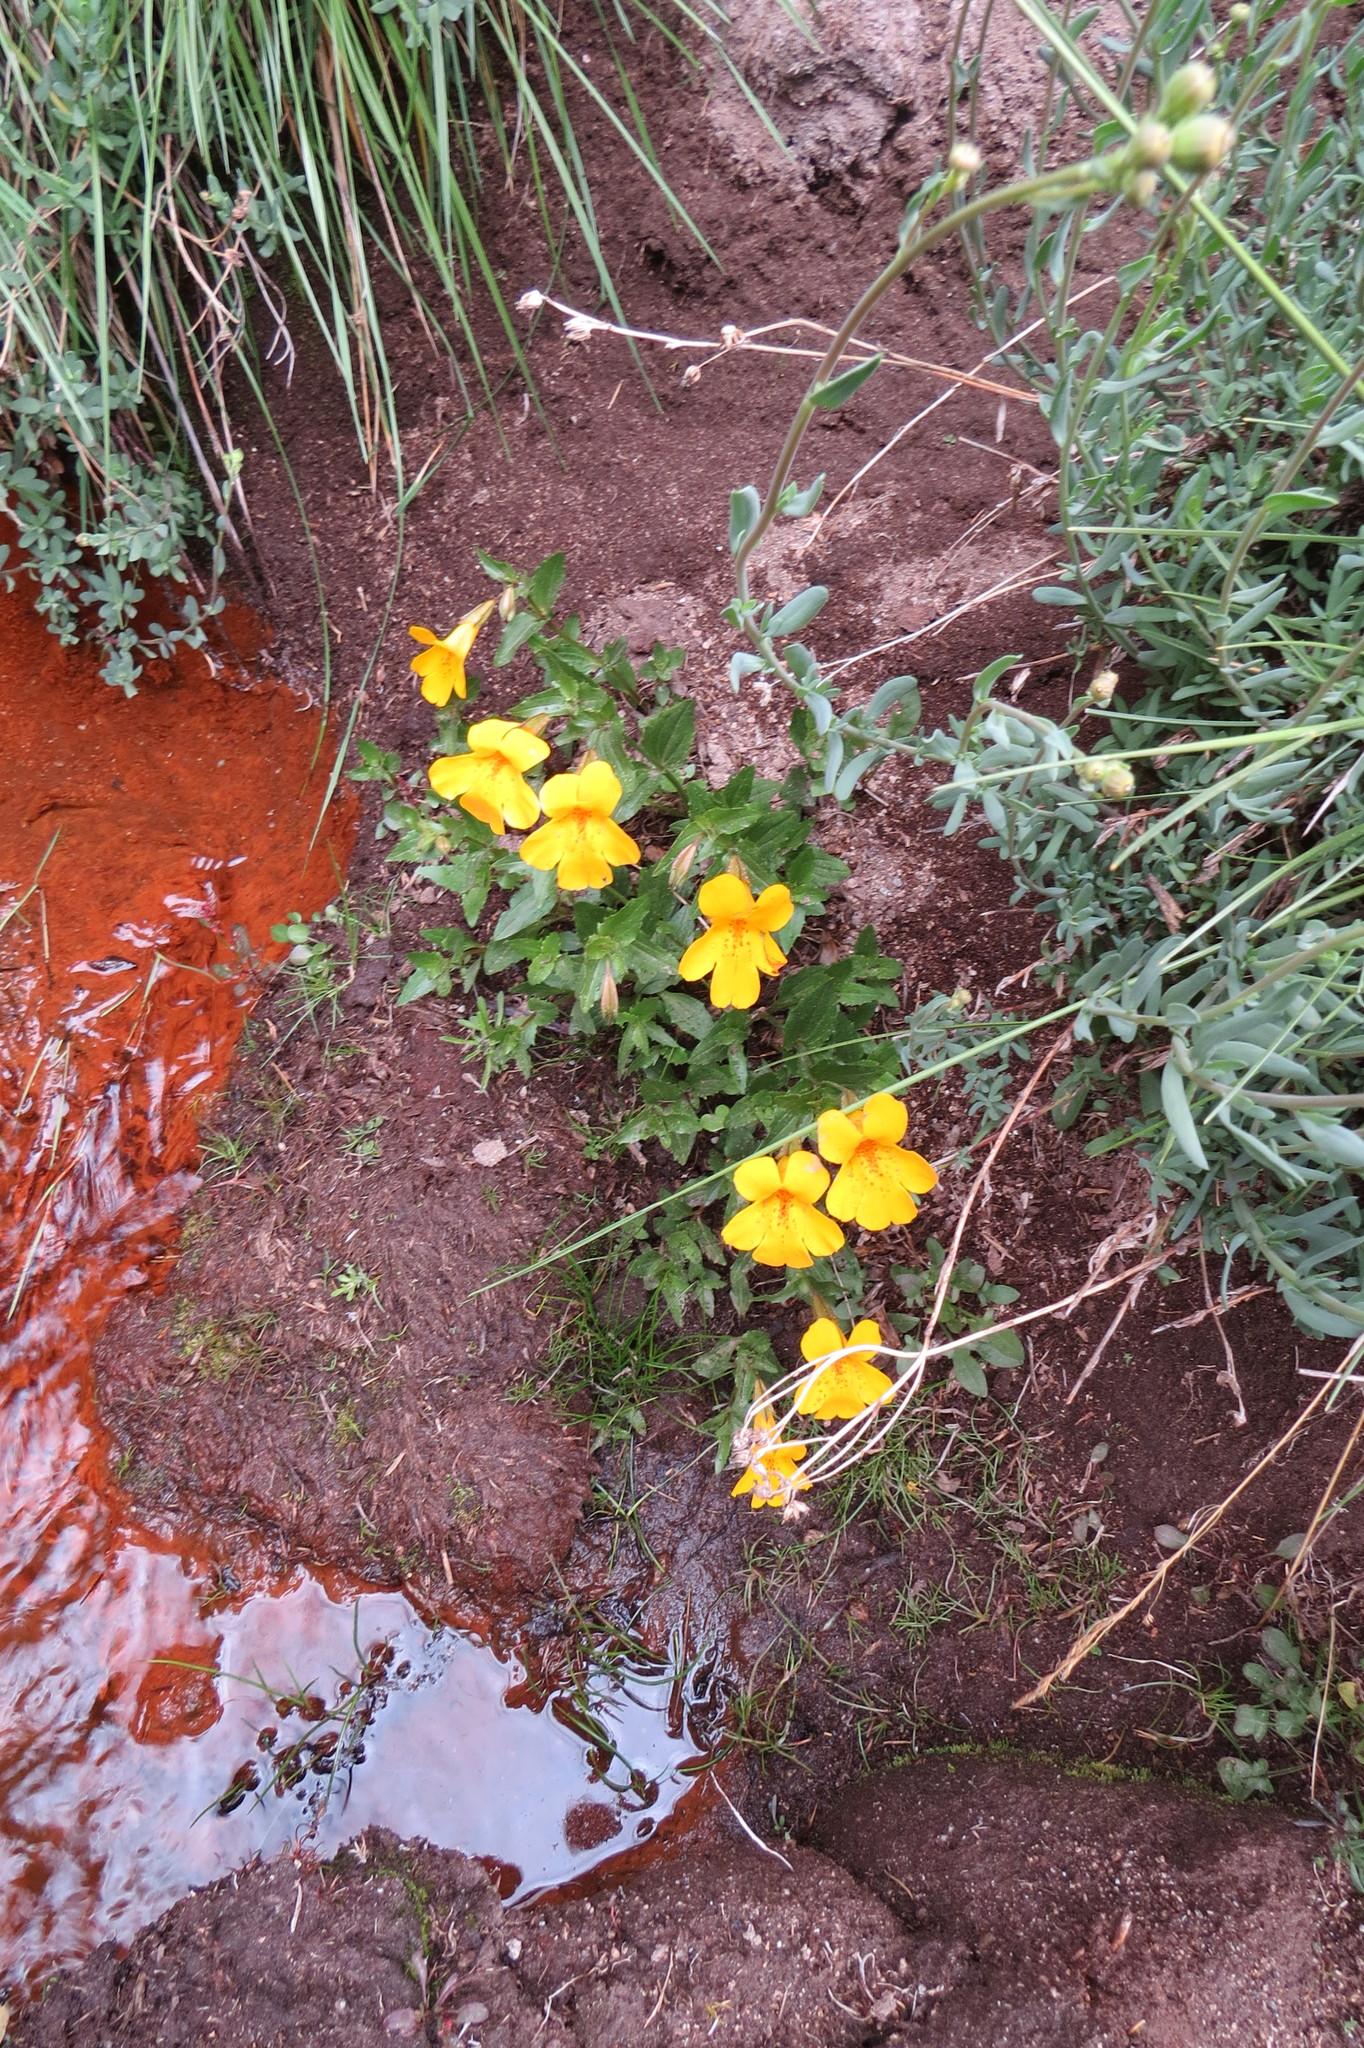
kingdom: Plantae
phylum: Tracheophyta
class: Magnoliopsida
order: Lamiales
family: Phrymaceae
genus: Erythranthe
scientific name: Erythranthe lutea
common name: Yellow monkey-flower
